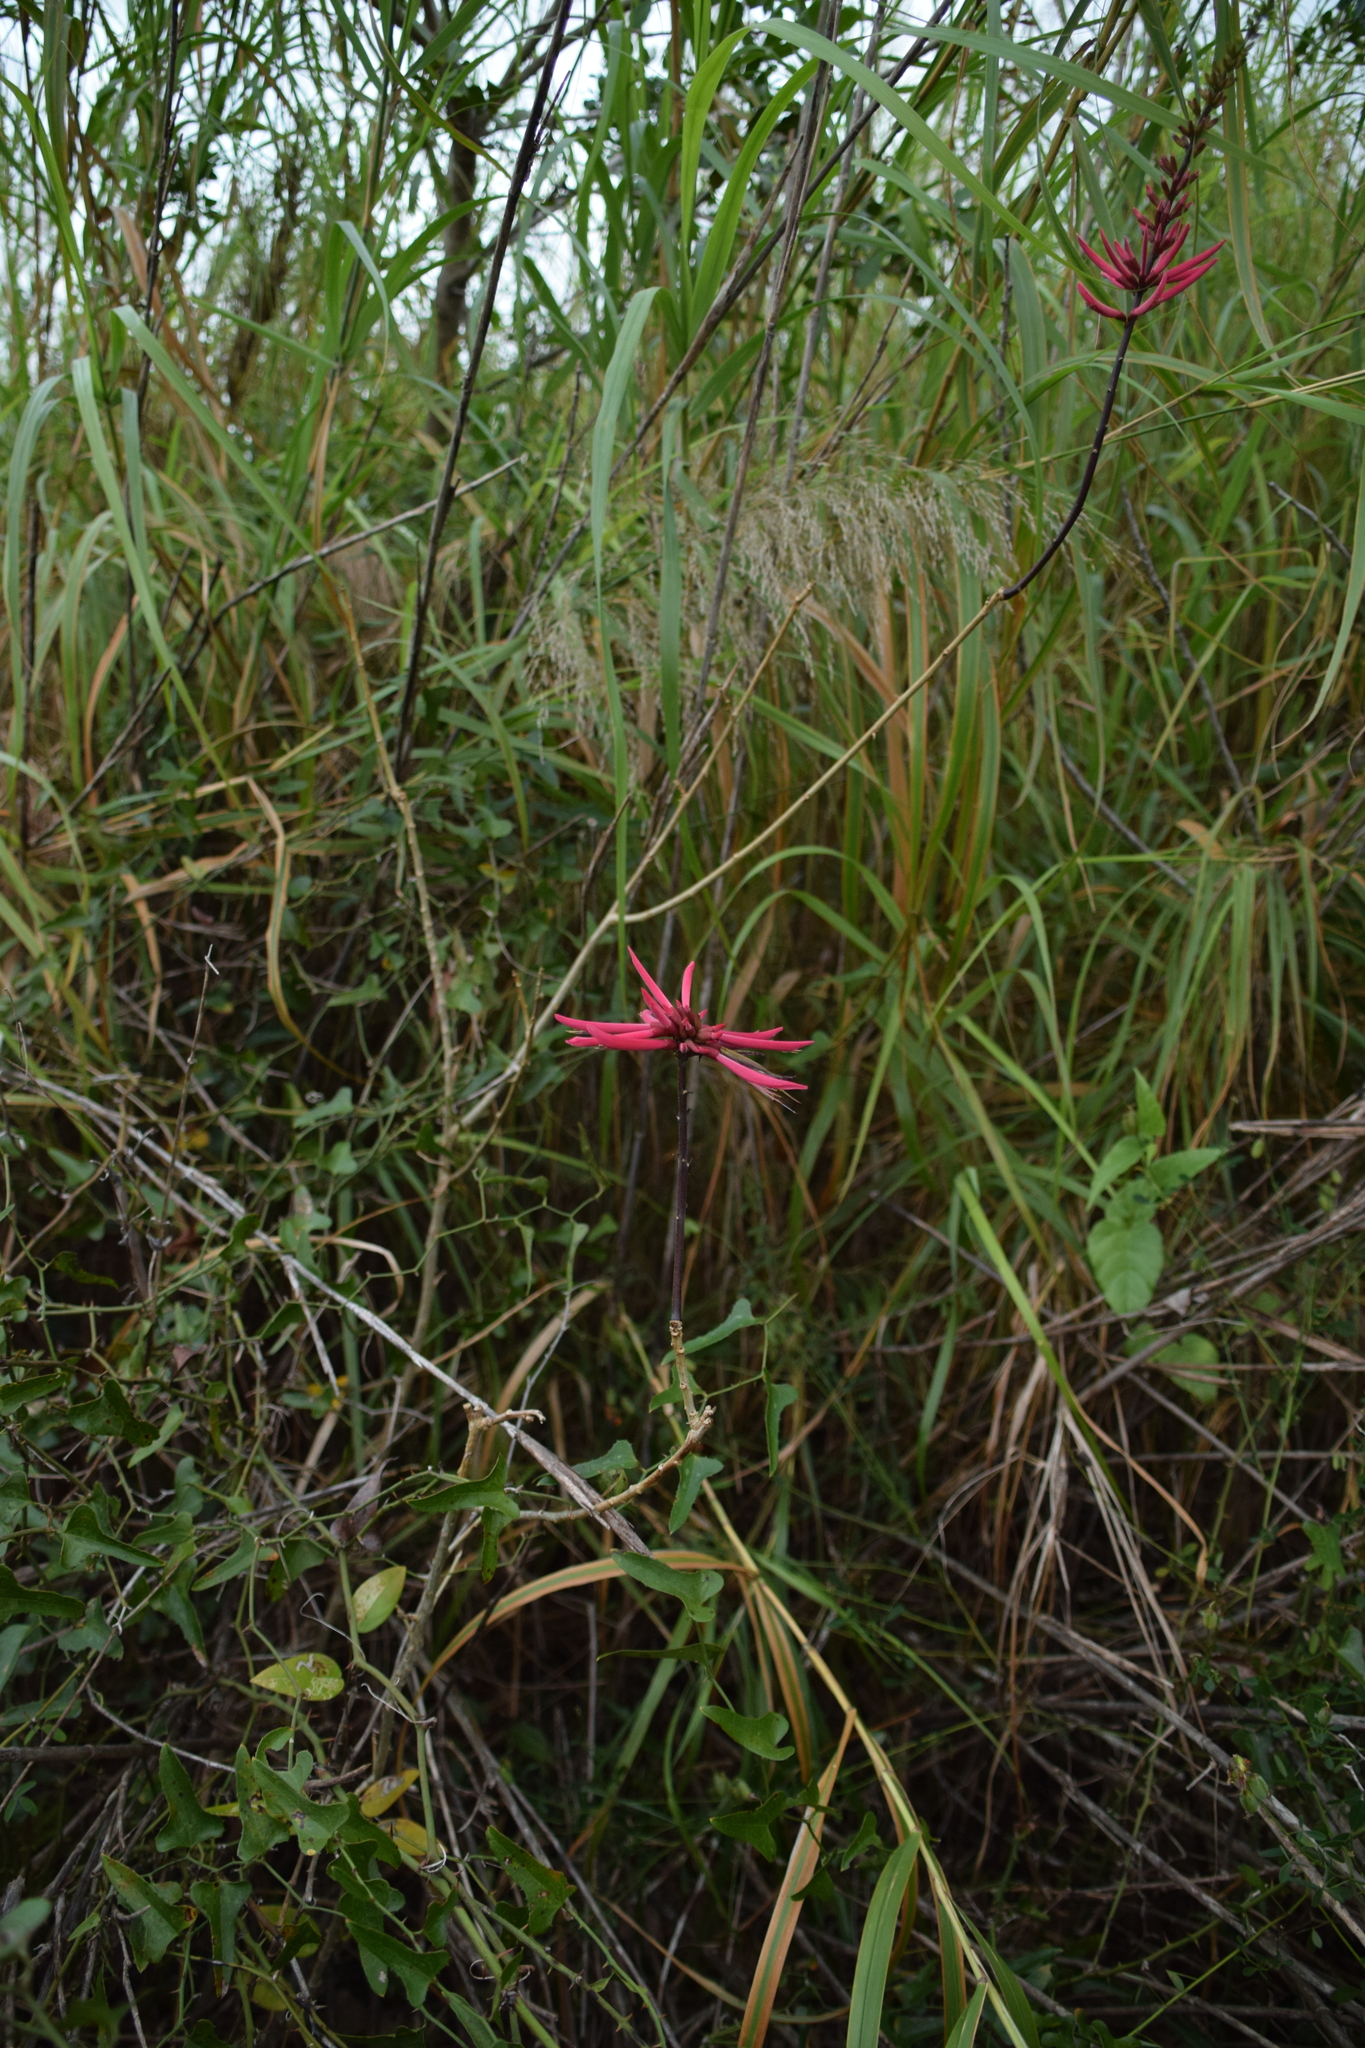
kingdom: Plantae
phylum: Tracheophyta
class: Magnoliopsida
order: Fabales
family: Fabaceae
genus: Erythrina
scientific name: Erythrina herbacea
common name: Coral-bean
